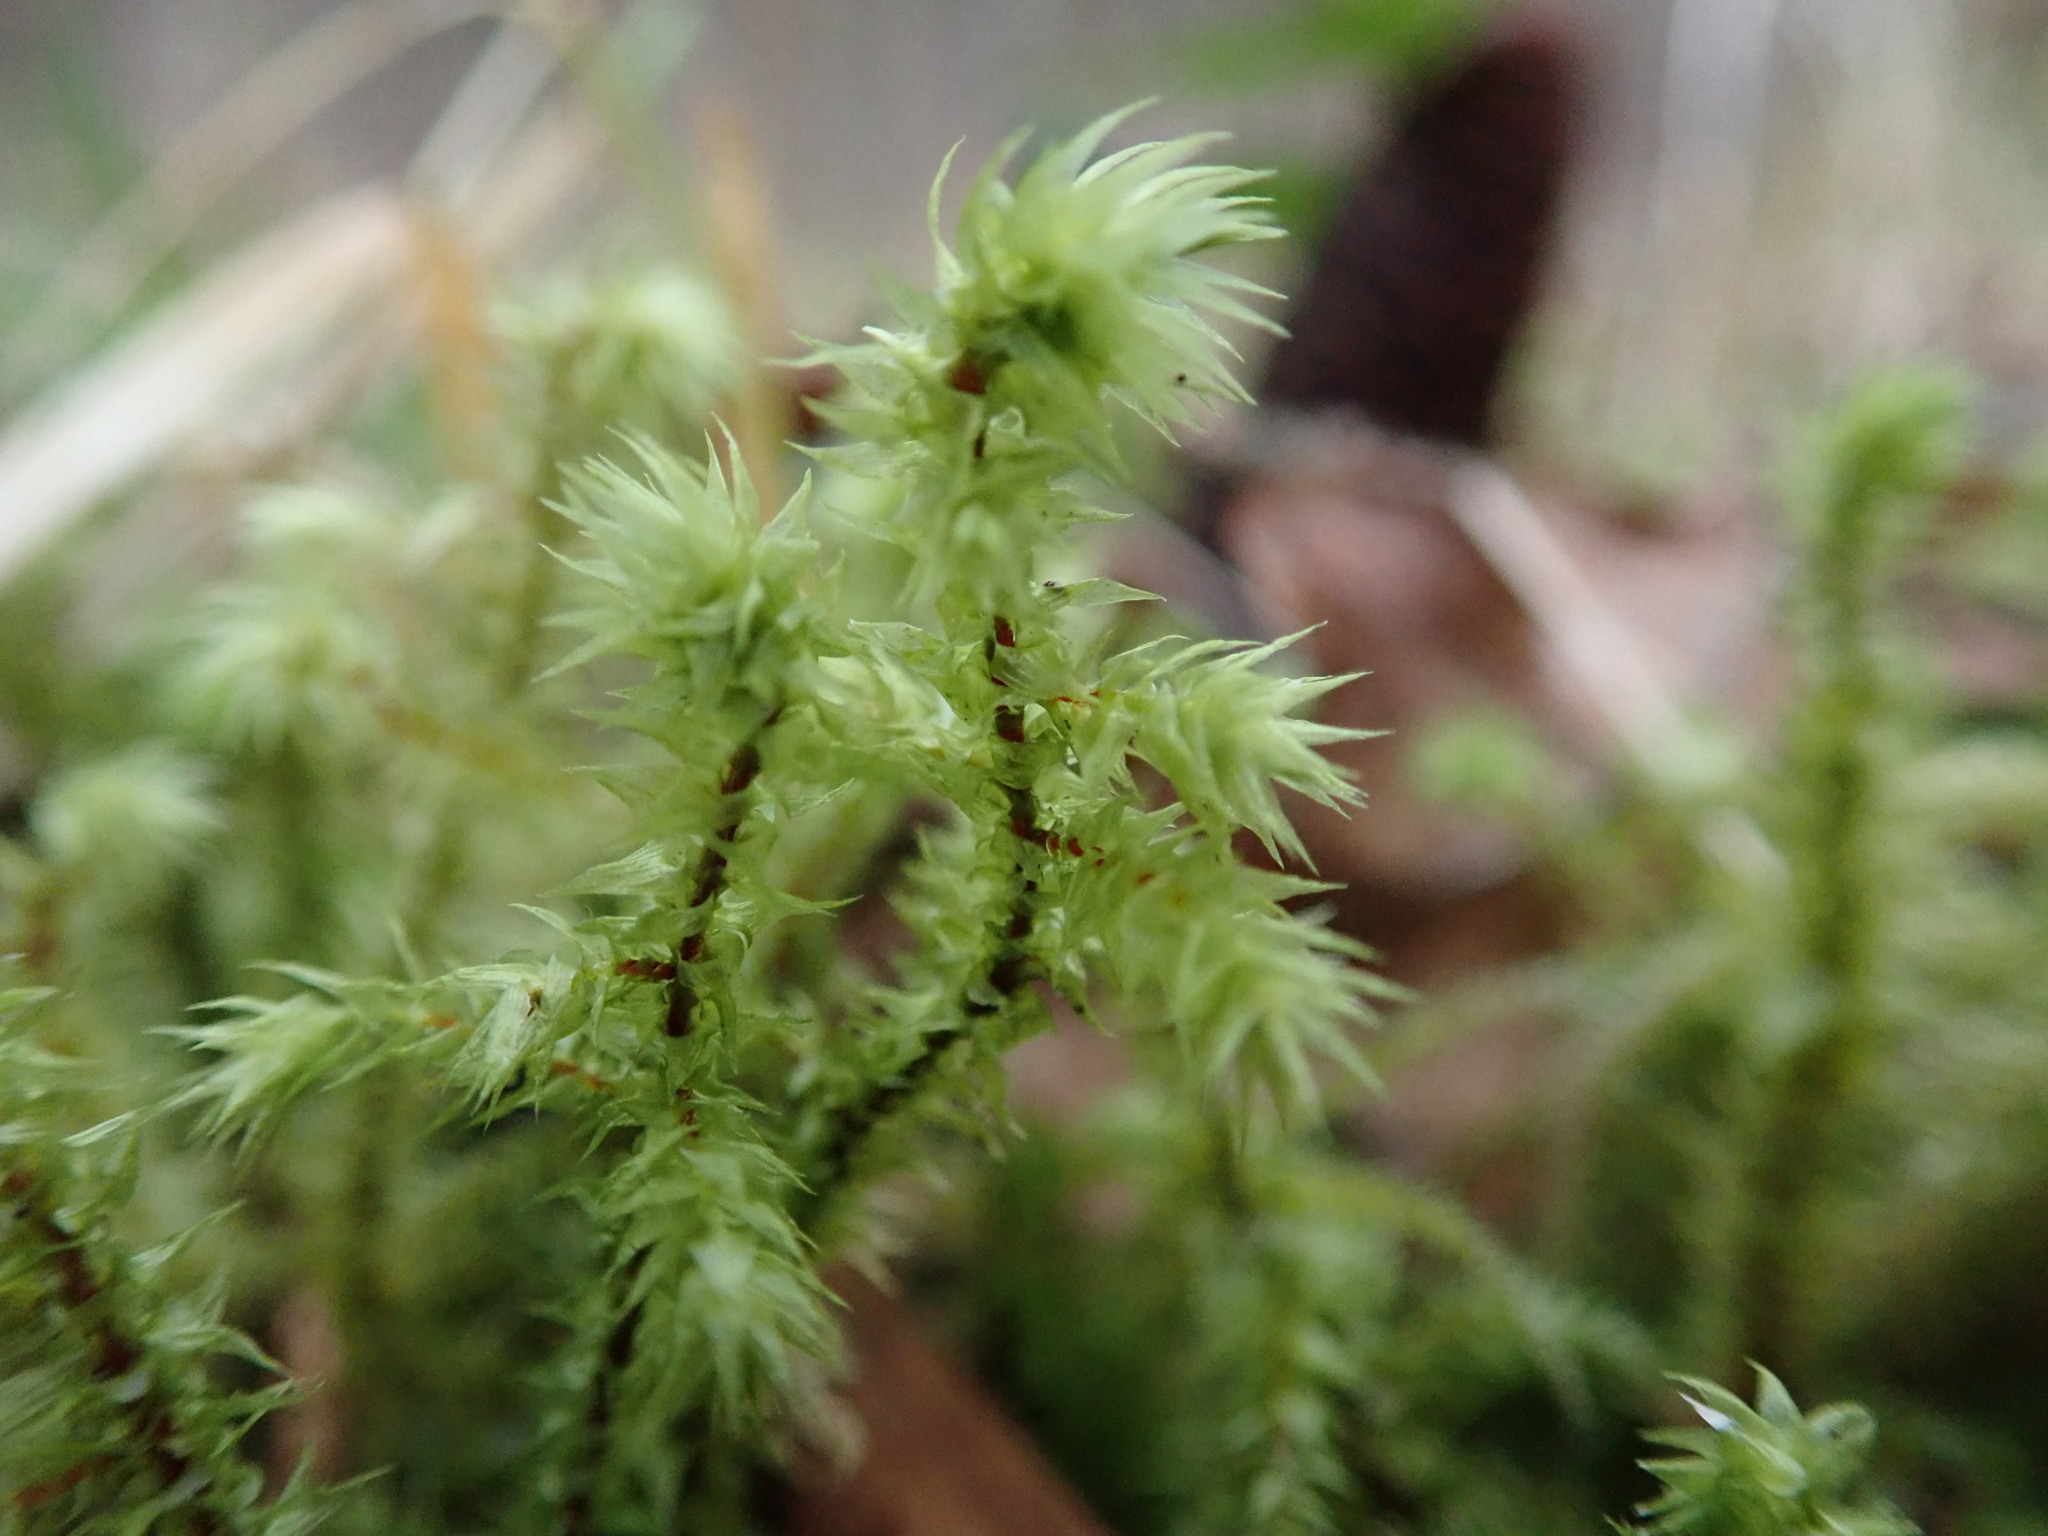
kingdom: Plantae
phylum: Bryophyta
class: Bryopsida
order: Hypnales
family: Hylocomiaceae
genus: Hylocomiadelphus
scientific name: Hylocomiadelphus triquetrus
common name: Rough goose neck moss
